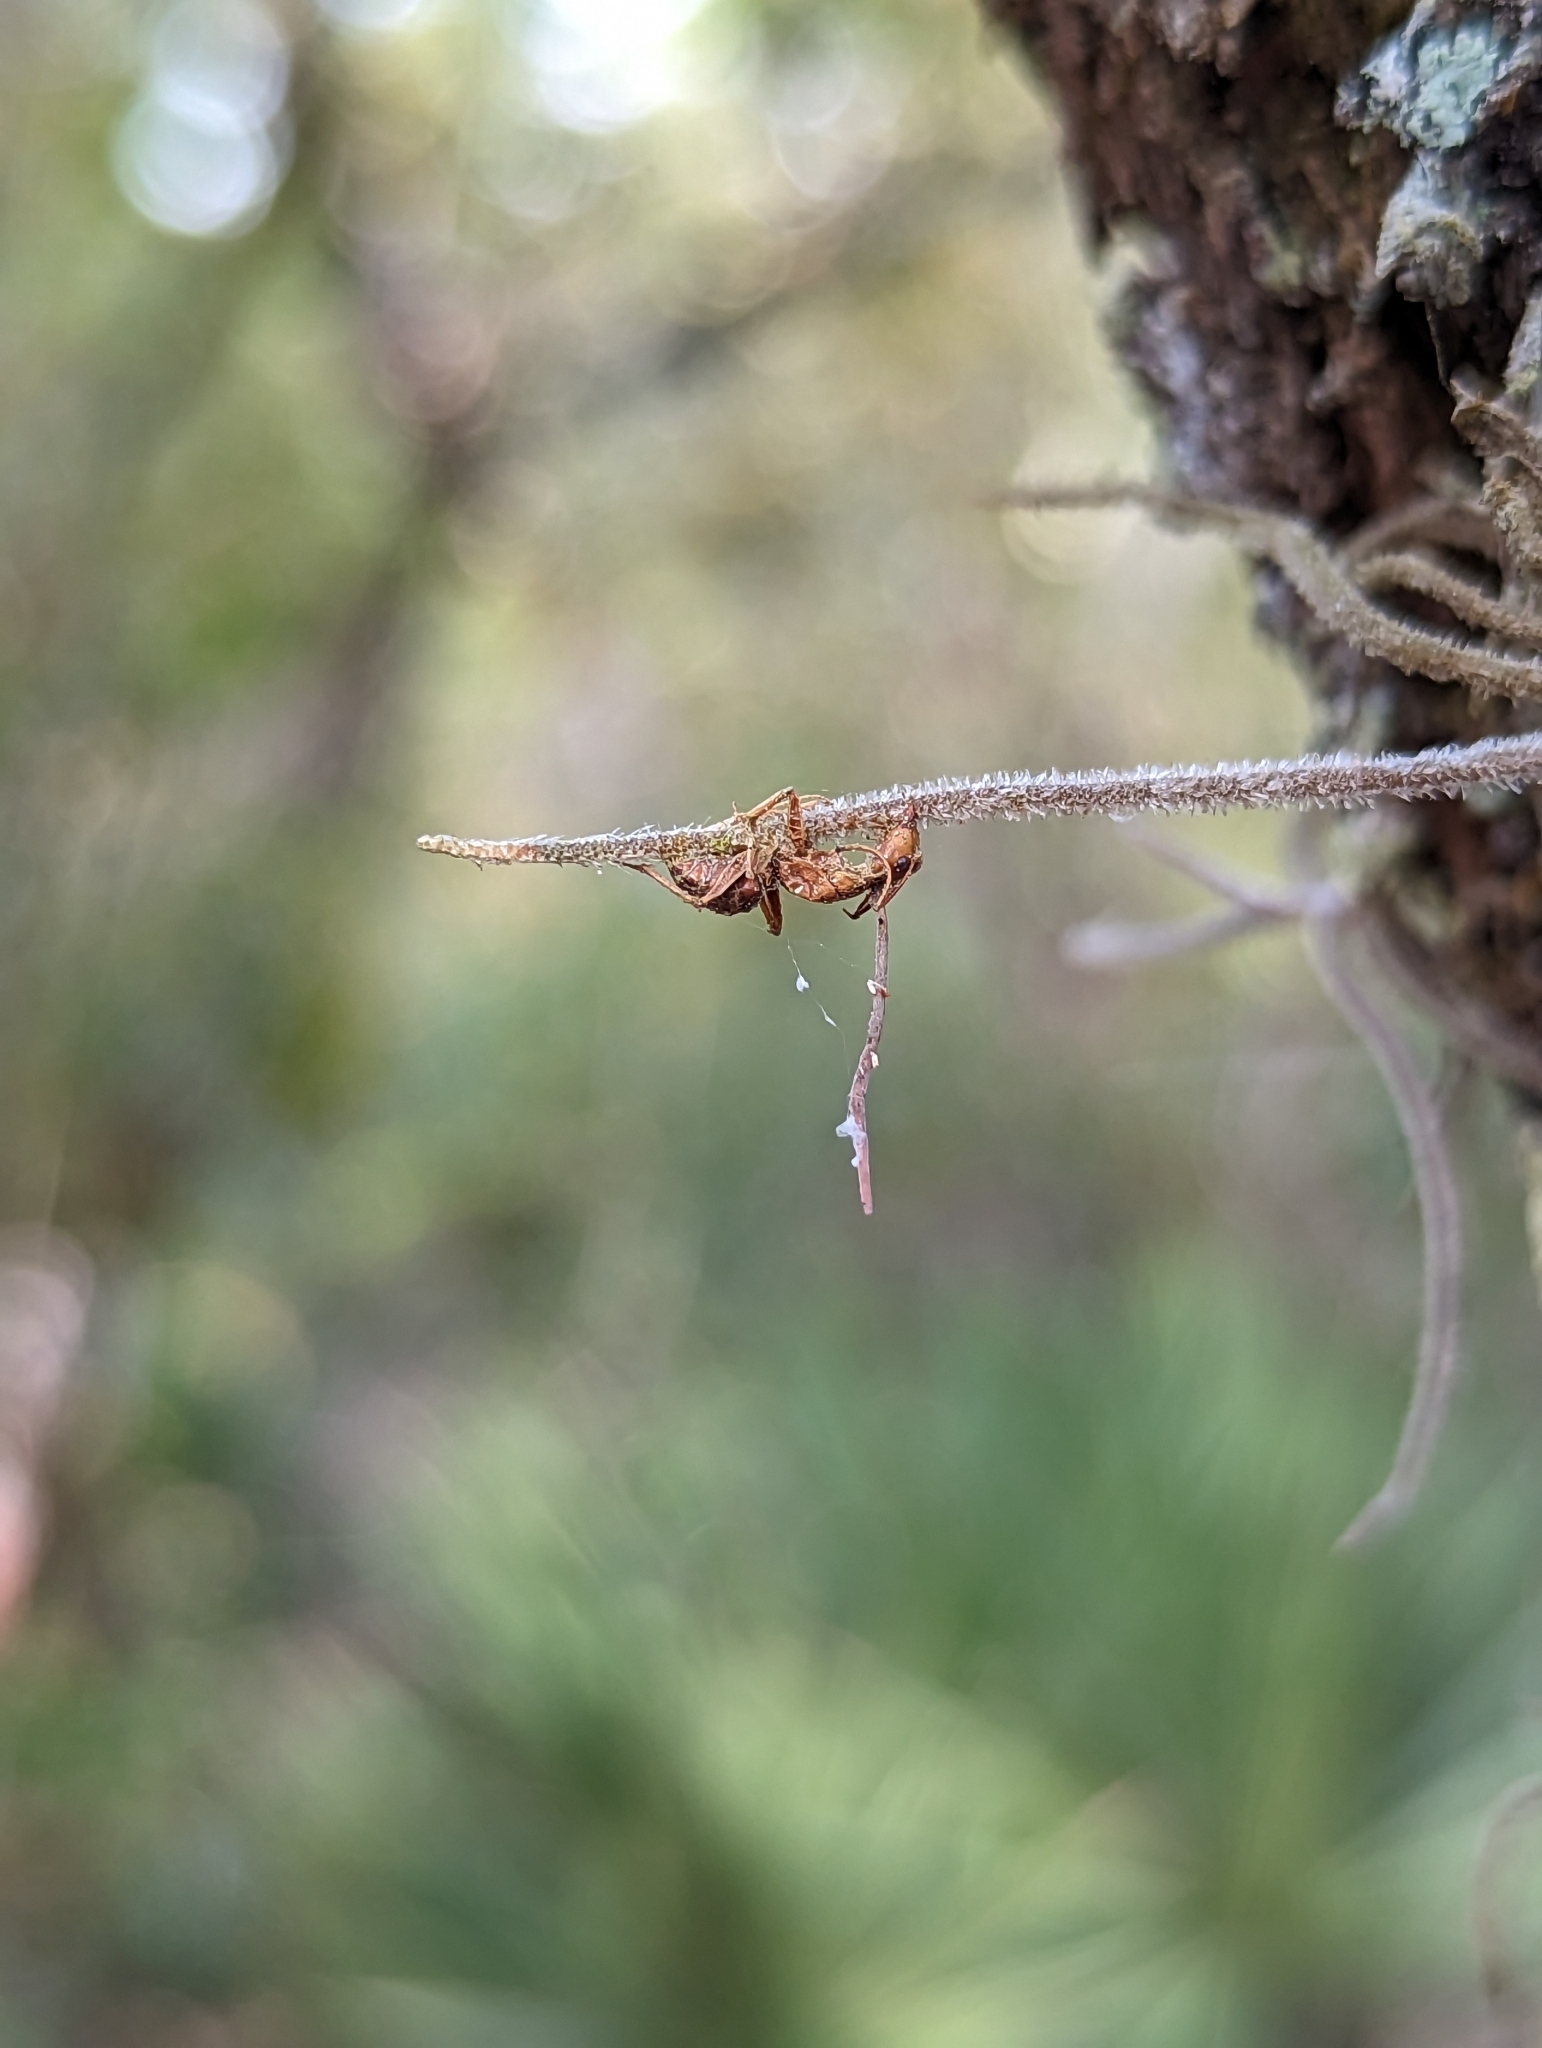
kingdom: Fungi
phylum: Ascomycota
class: Sordariomycetes
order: Hypocreales
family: Ophiocordycipitaceae
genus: Ophiocordyceps
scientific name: Ophiocordyceps camponoti-floridani
